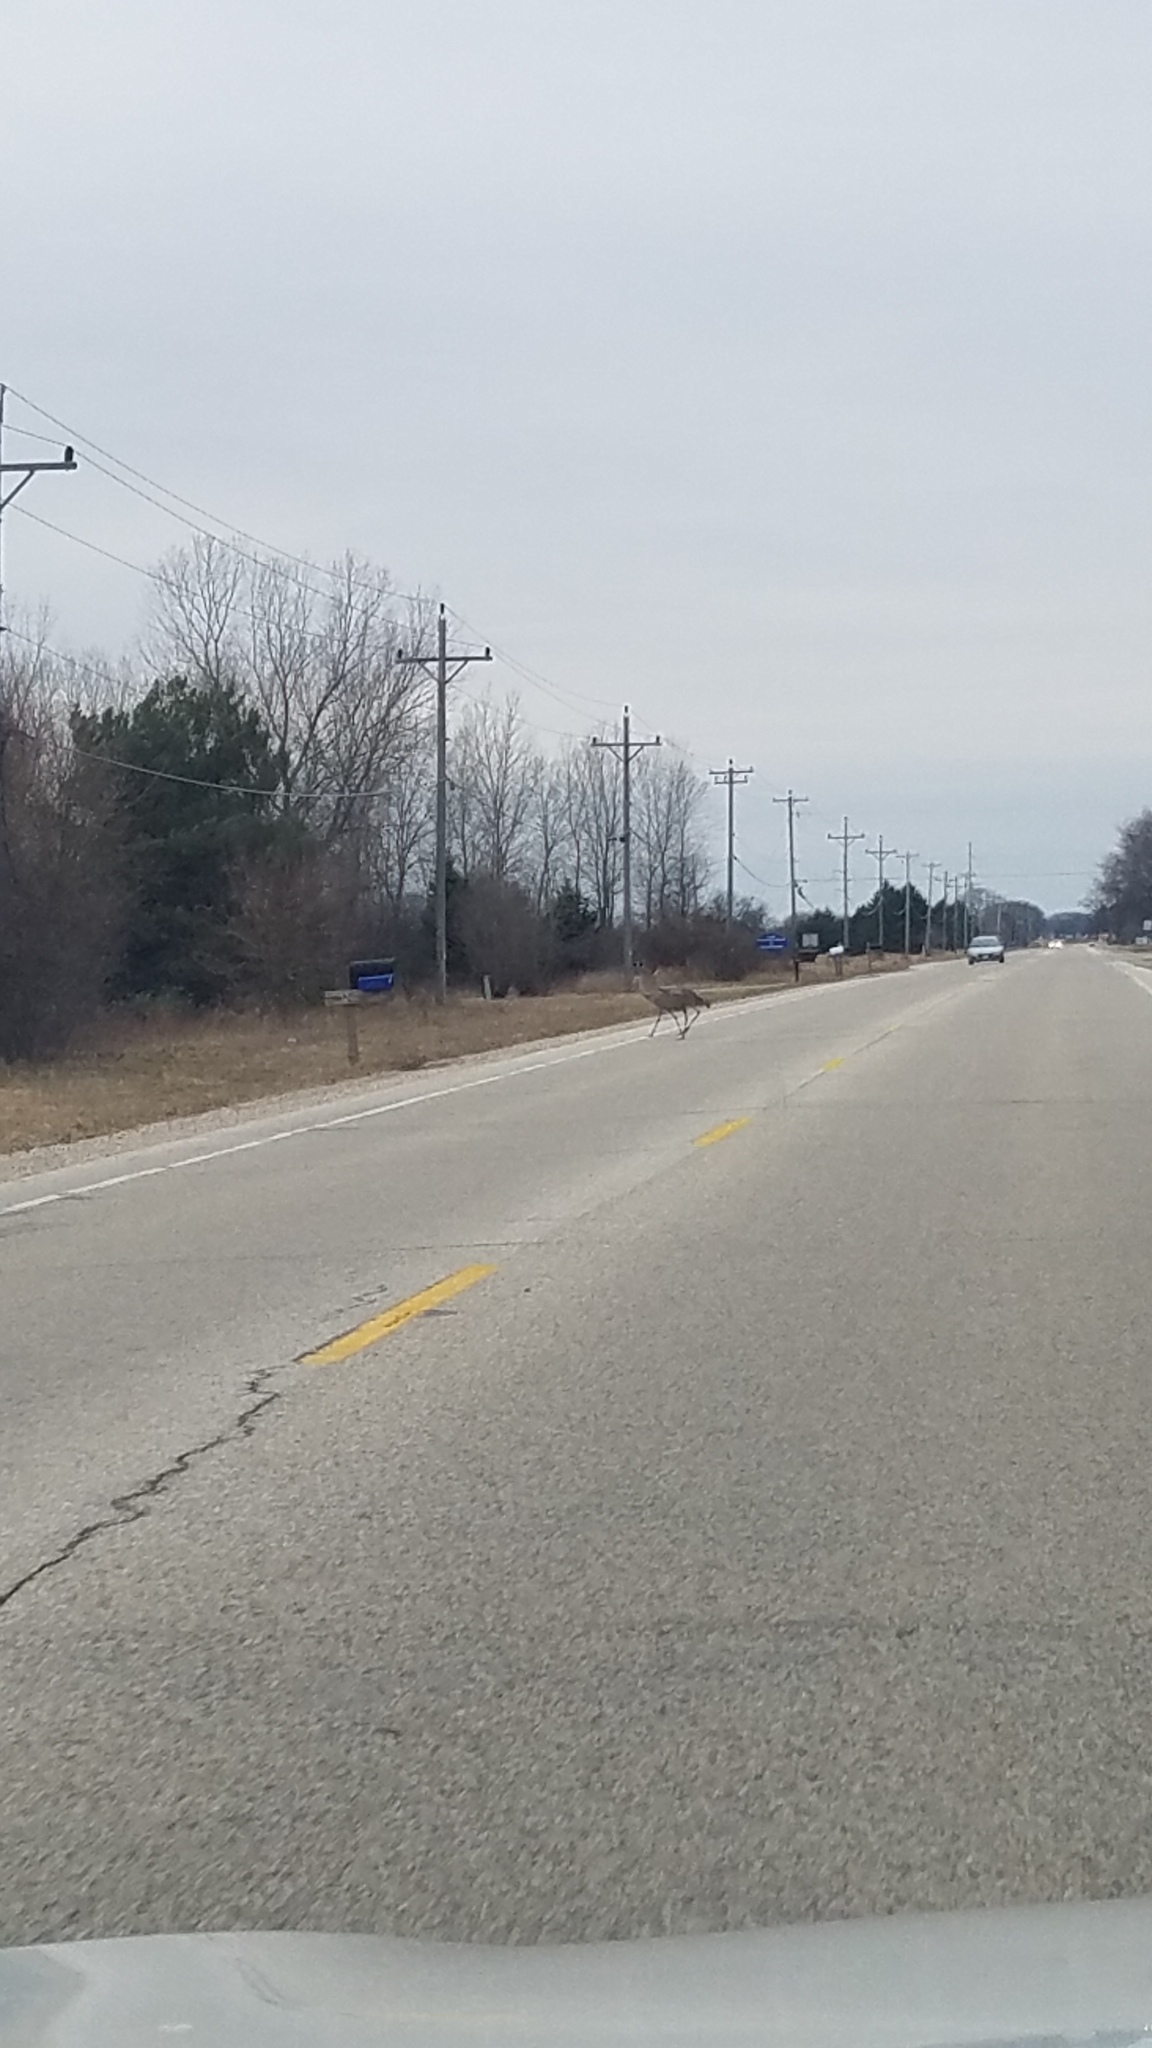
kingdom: Animalia
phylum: Chordata
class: Aves
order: Gruiformes
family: Gruidae
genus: Grus
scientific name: Grus canadensis
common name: Sandhill crane
